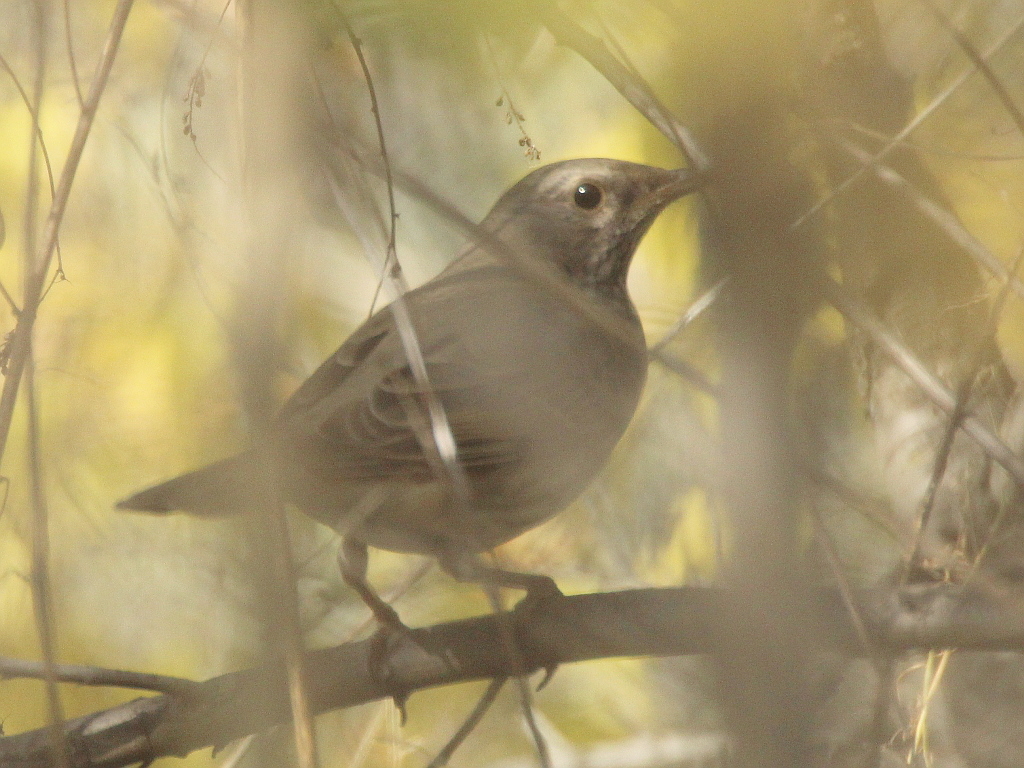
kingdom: Animalia
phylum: Chordata
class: Aves
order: Passeriformes
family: Turdidae
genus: Turdus
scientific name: Turdus atrogularis
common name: Black-throated thrush
